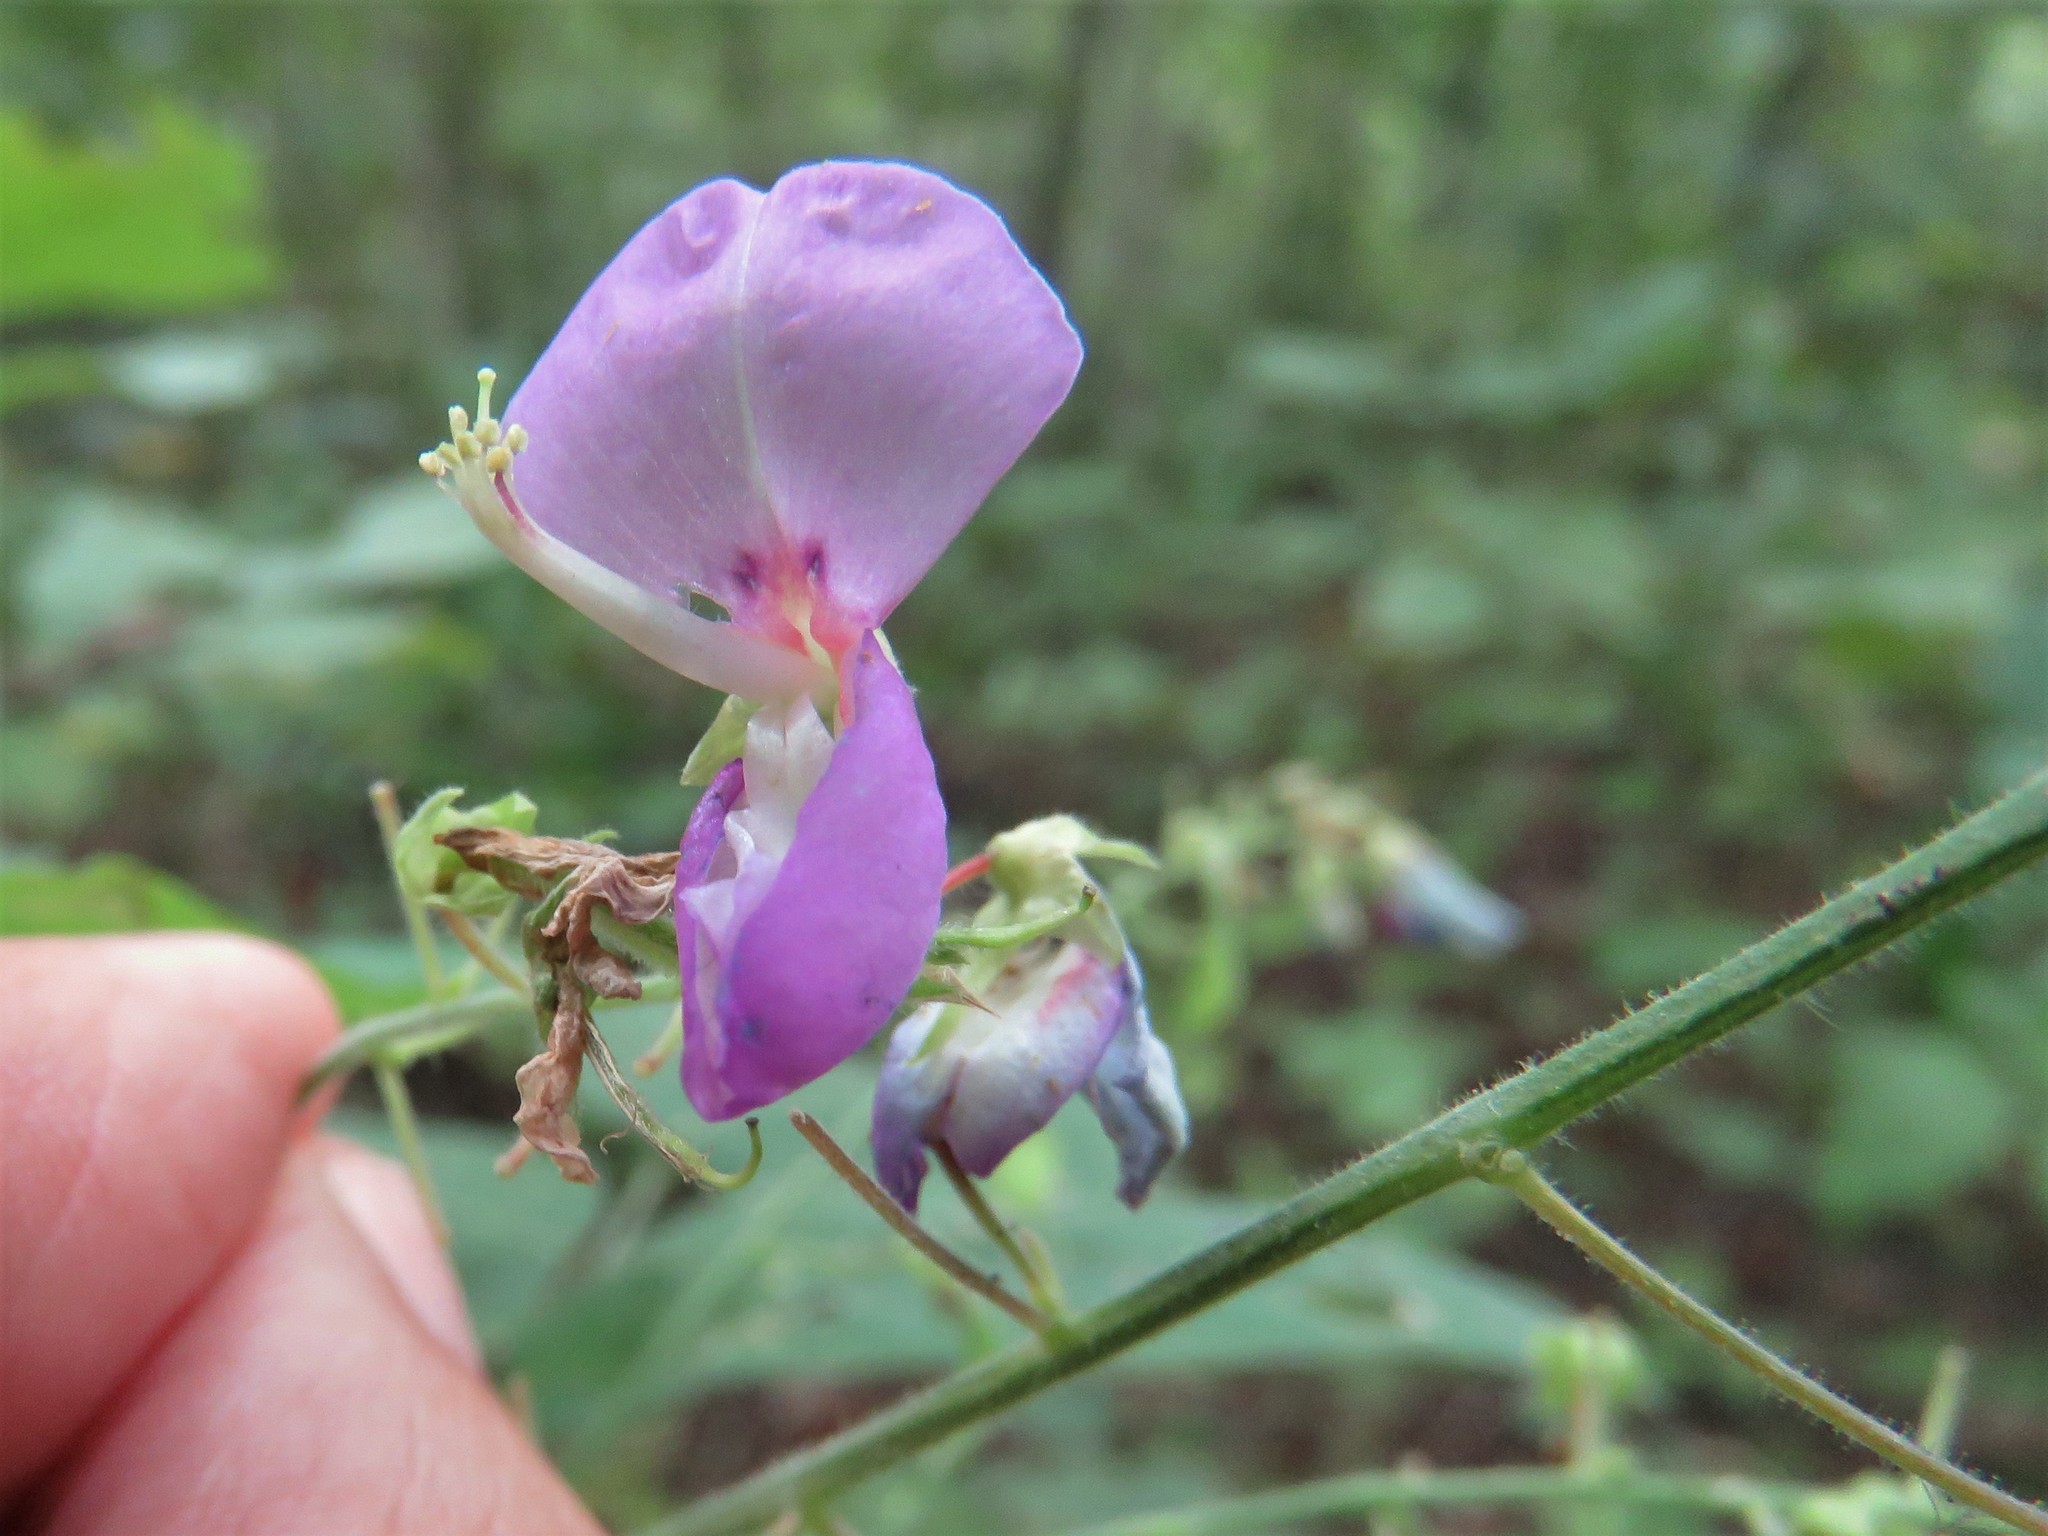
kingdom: Plantae
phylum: Tracheophyta
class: Magnoliopsida
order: Fabales
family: Fabaceae
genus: Desmodium
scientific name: Desmodium paniculatum
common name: Panicled tick-clover
